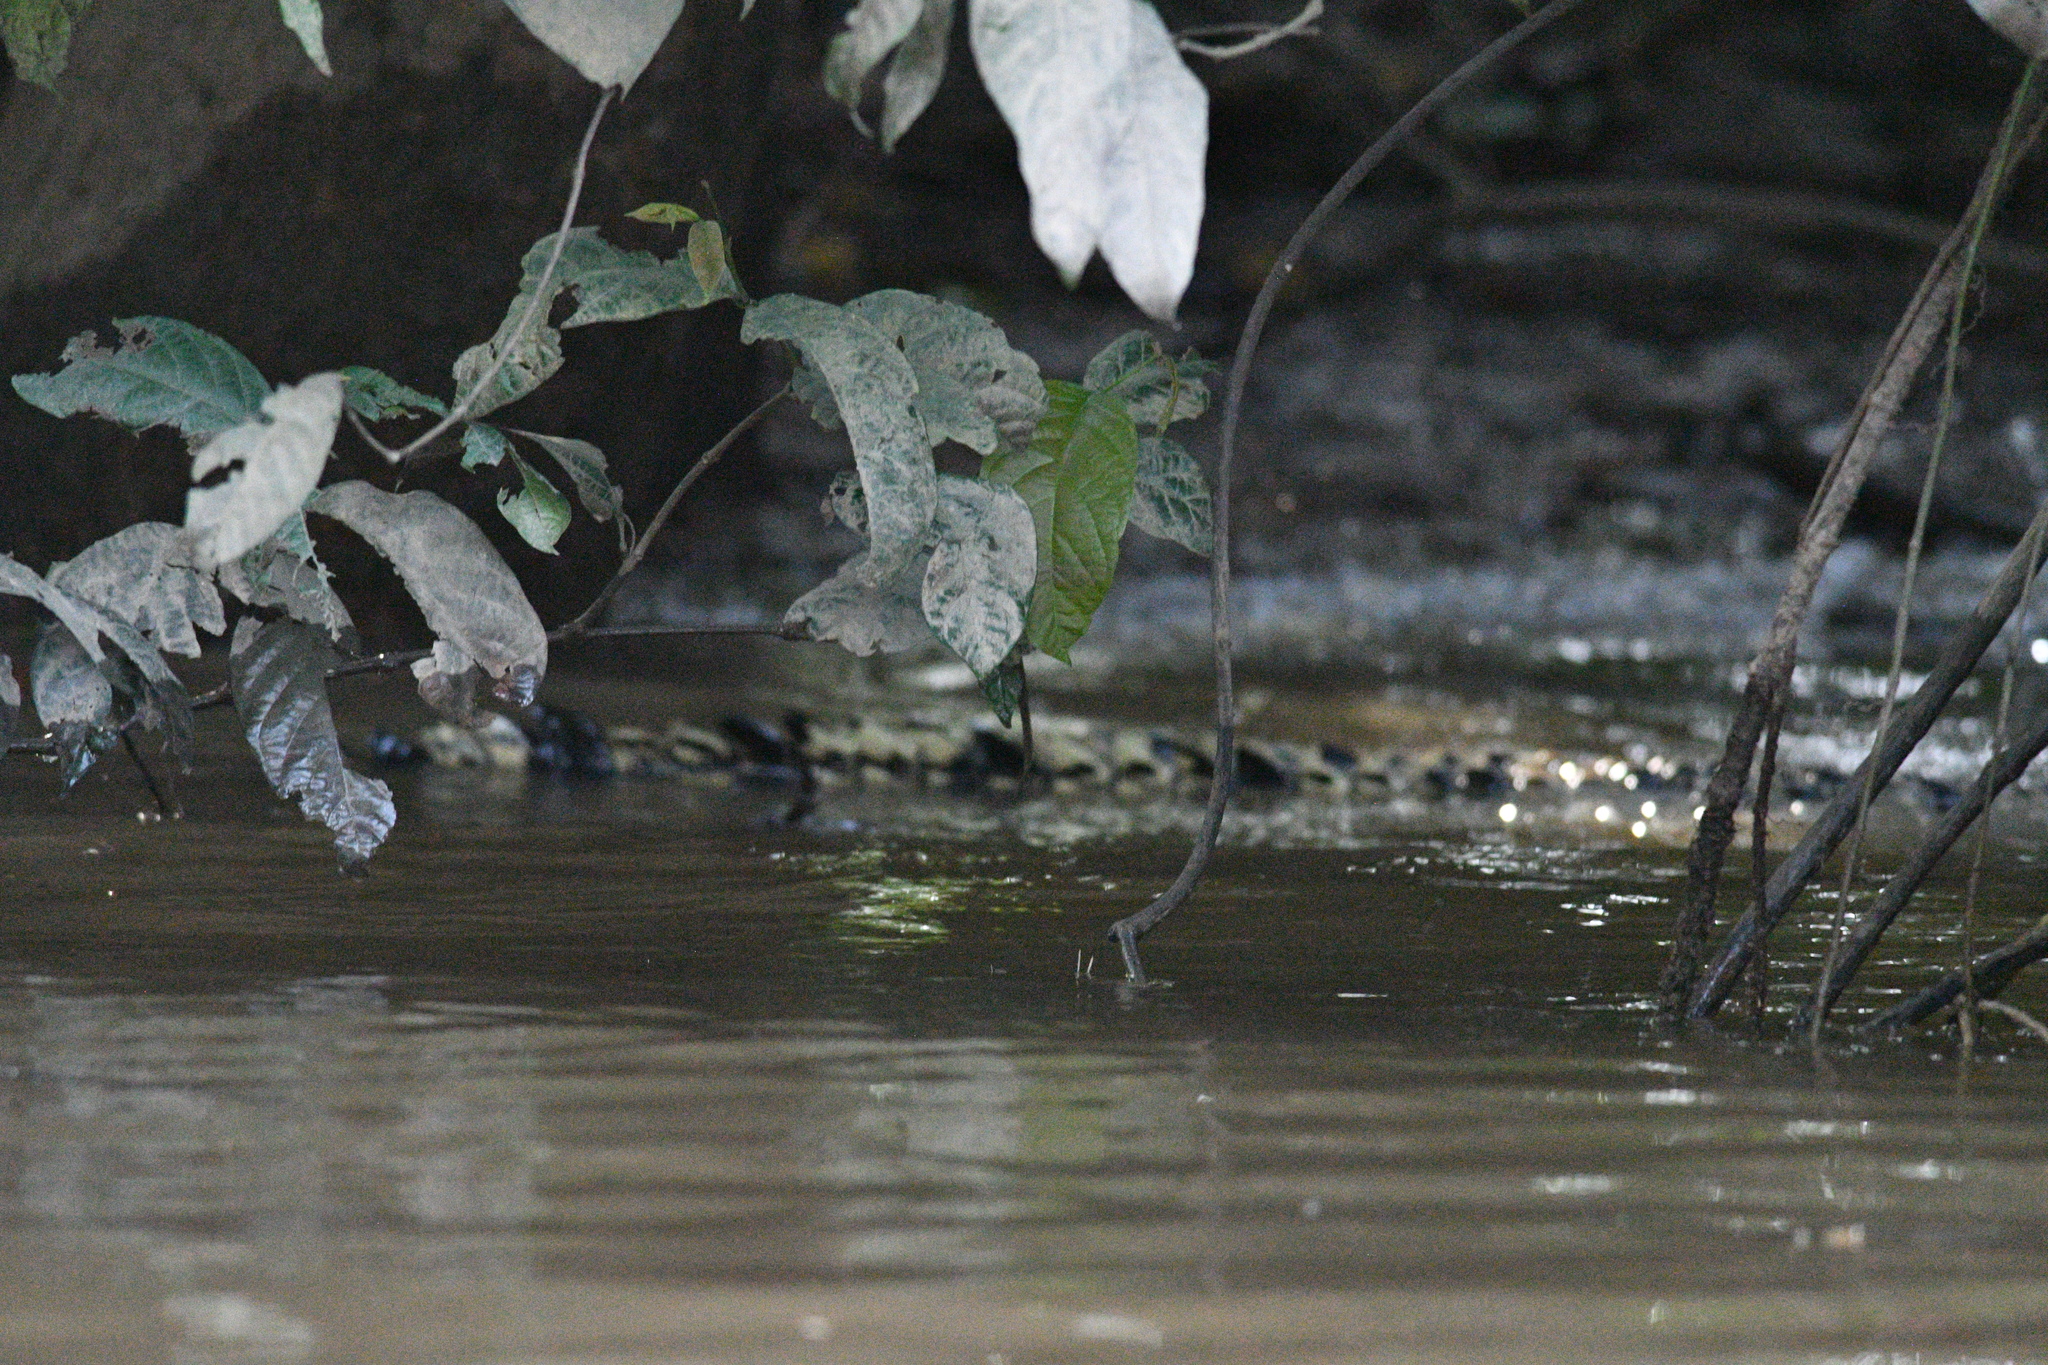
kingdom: Animalia
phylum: Chordata
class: Crocodylia
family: Crocodylidae
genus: Crocodylus
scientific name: Crocodylus porosus
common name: Saltwater crocodile
